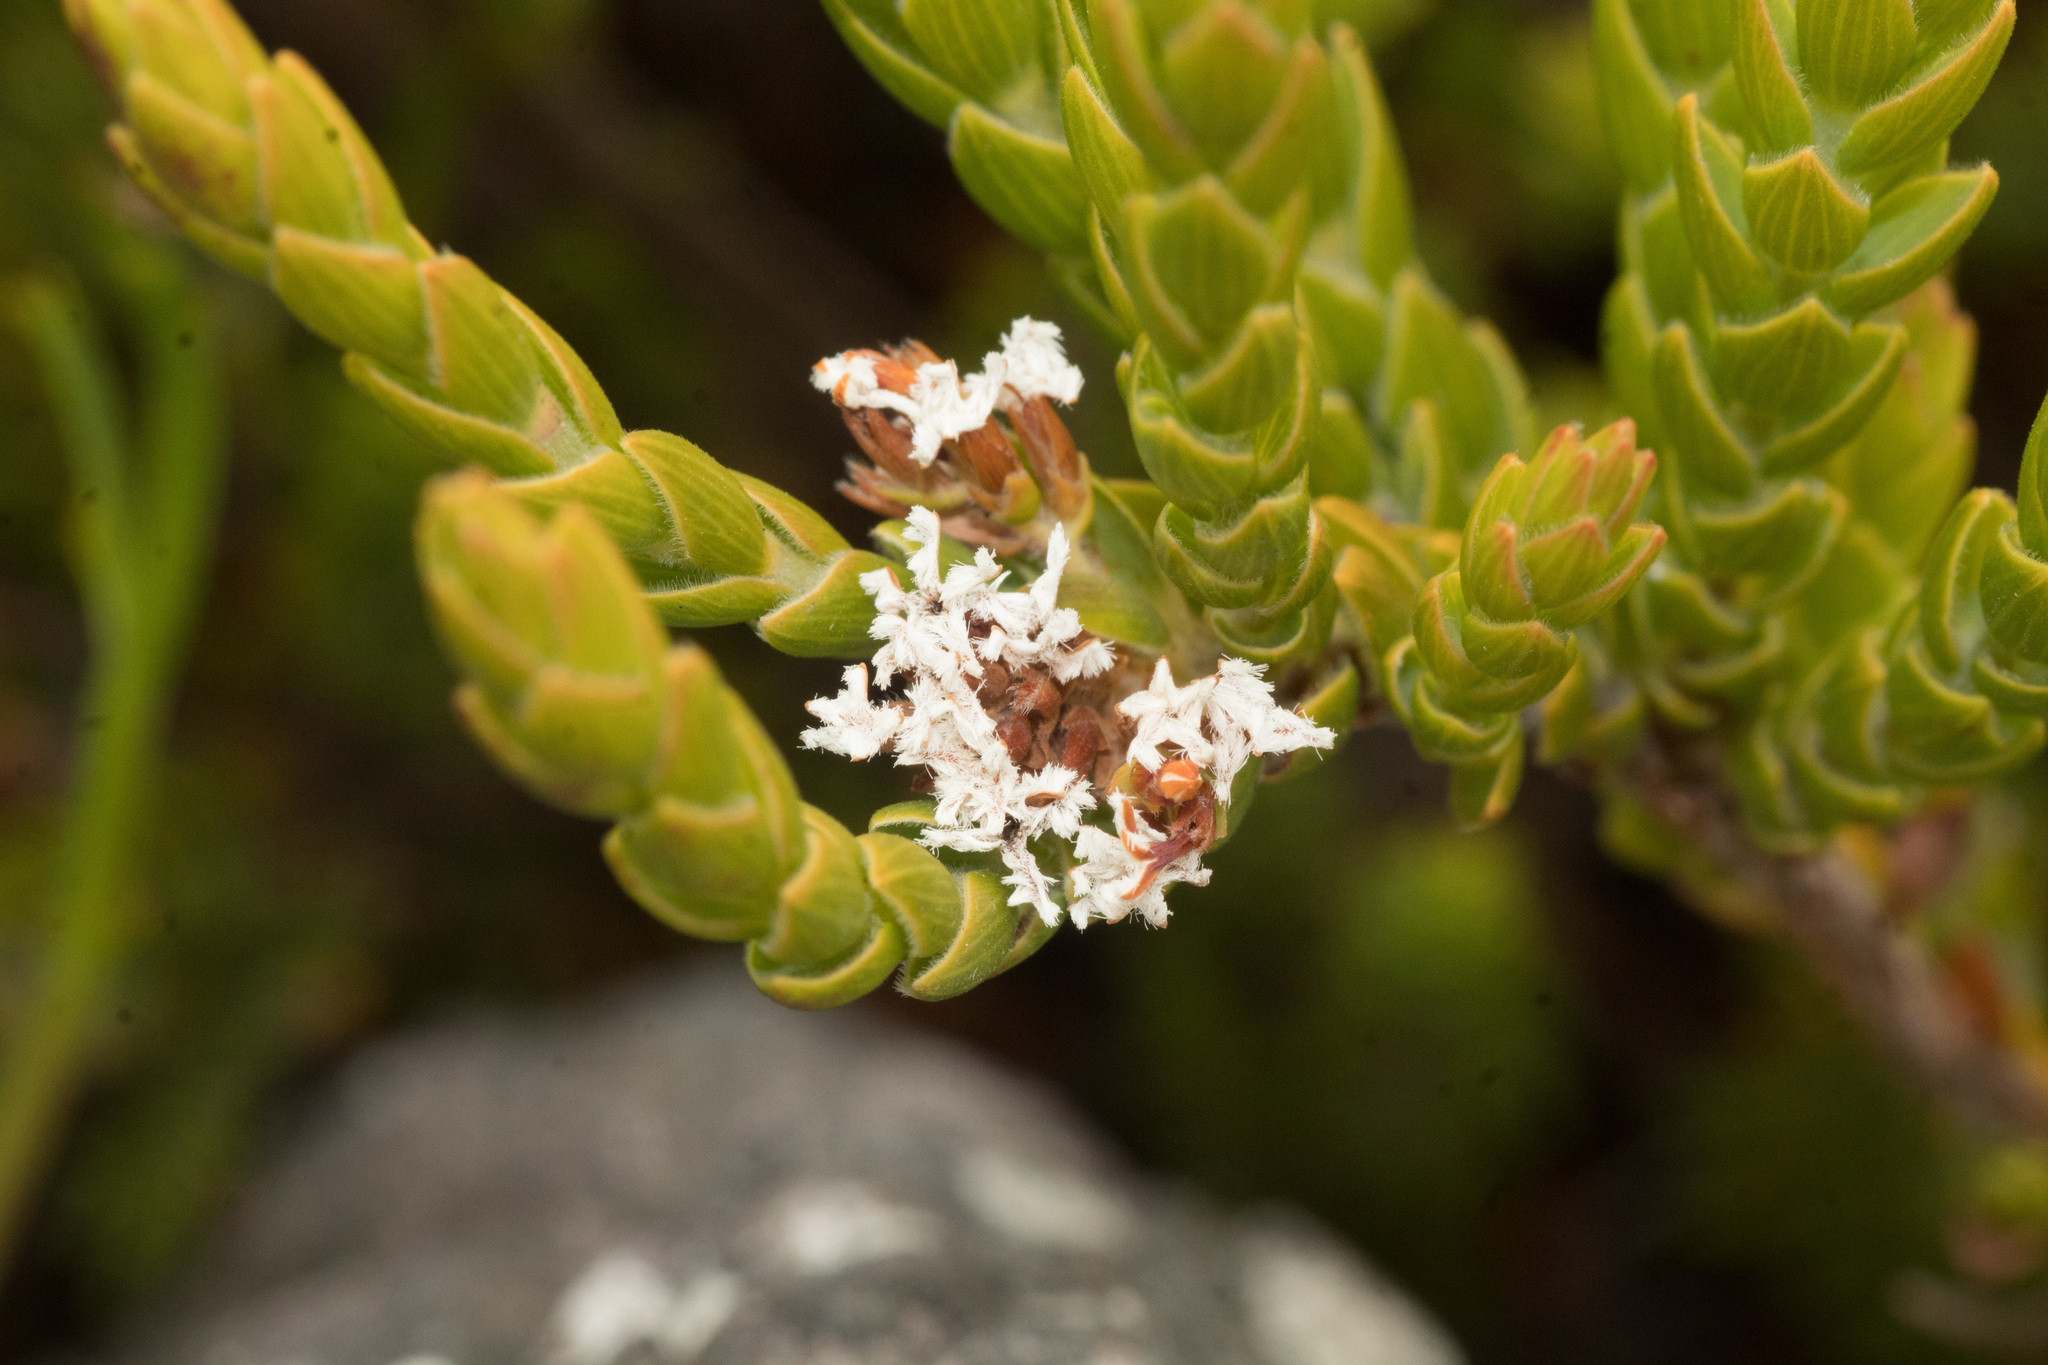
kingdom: Plantae
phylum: Tracheophyta
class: Magnoliopsida
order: Ericales
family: Ericaceae
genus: Leucopogon
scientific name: Leucopogon gnaphalioides
